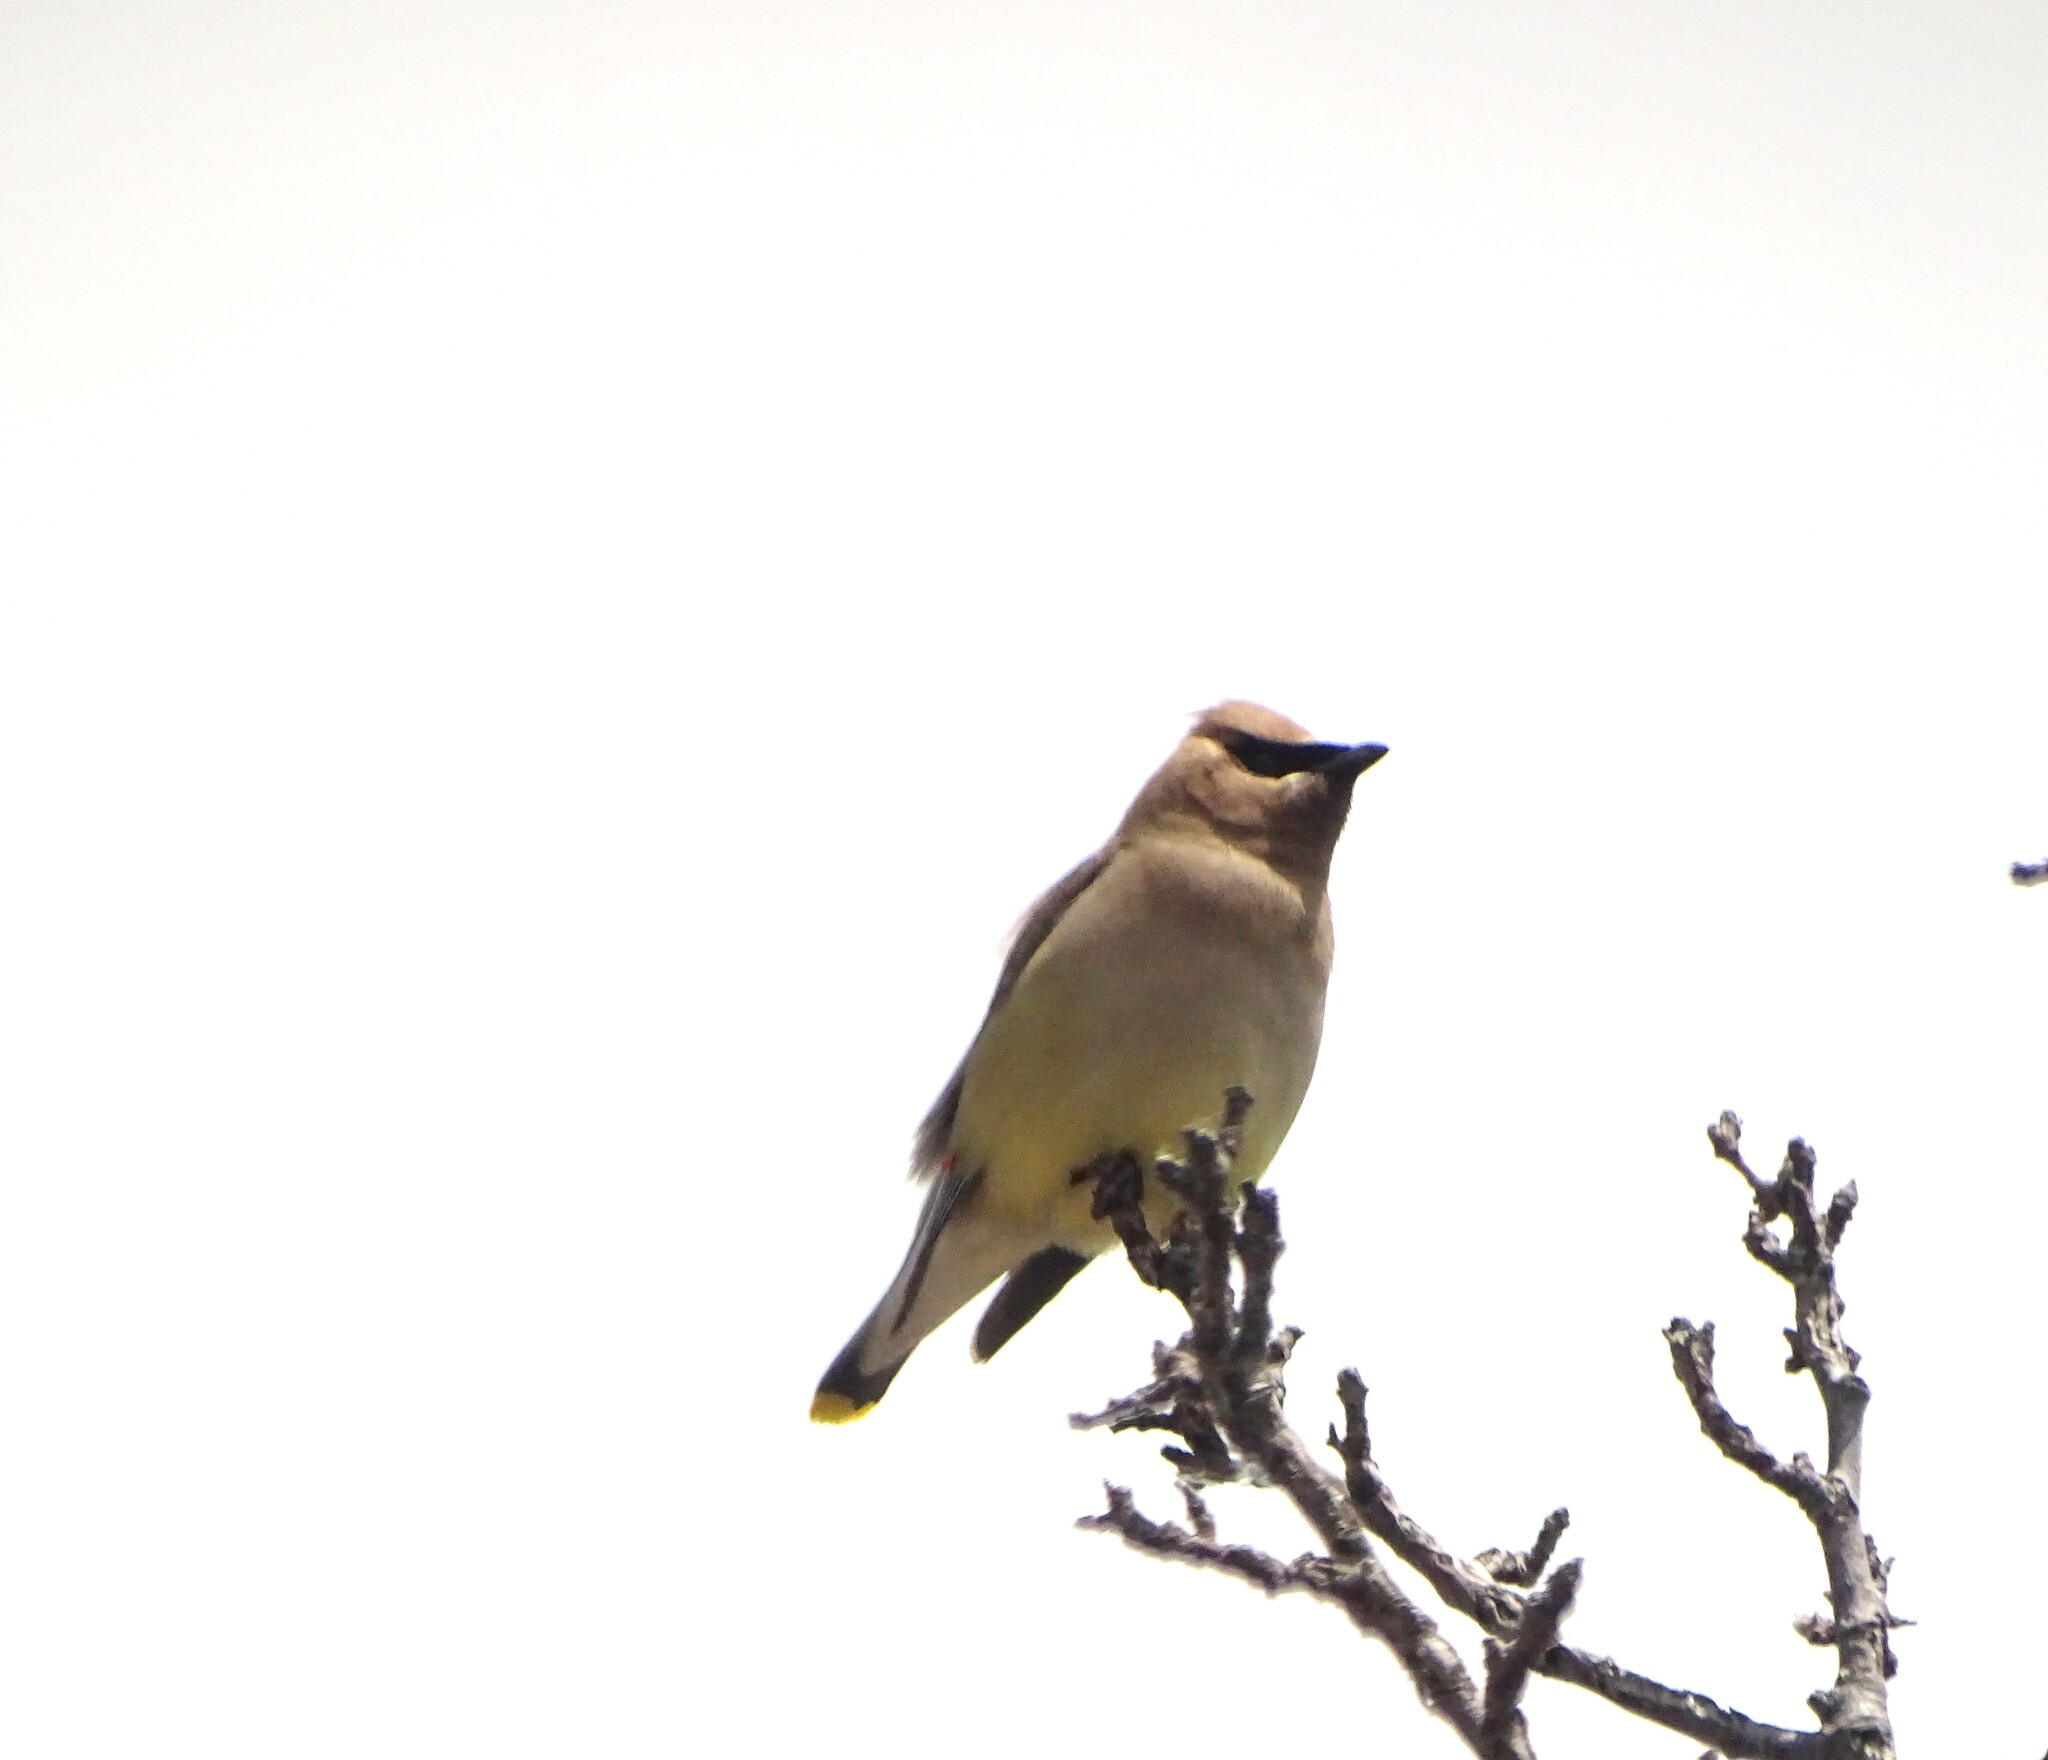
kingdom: Animalia
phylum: Chordata
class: Aves
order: Passeriformes
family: Bombycillidae
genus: Bombycilla
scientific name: Bombycilla cedrorum
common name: Cedar waxwing
